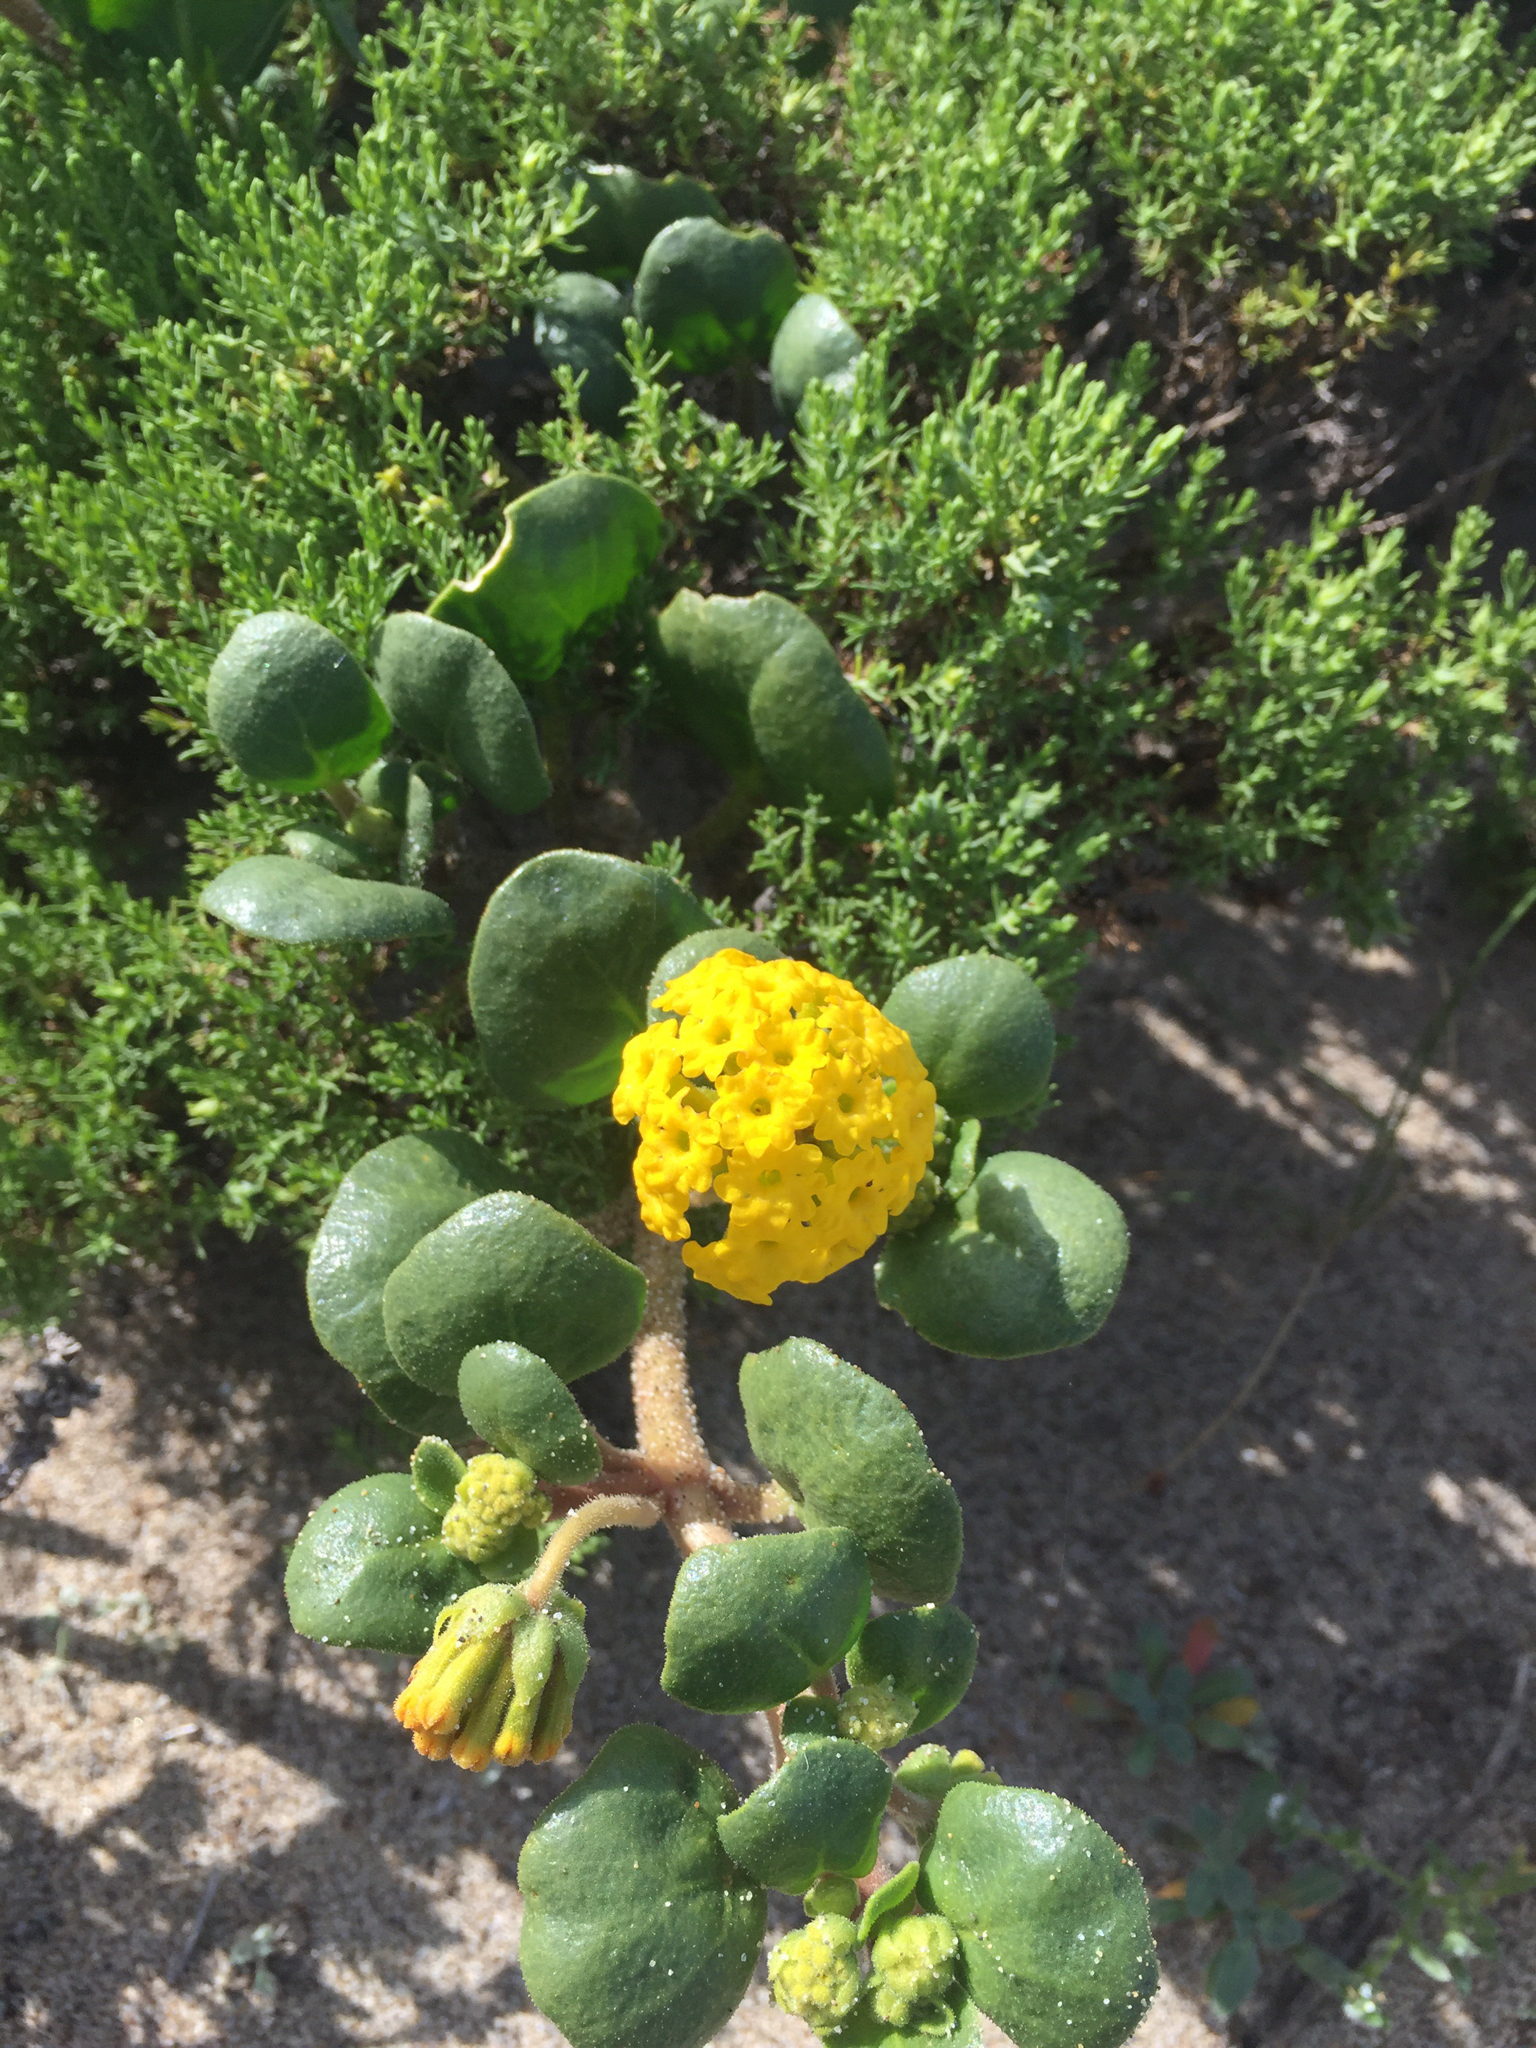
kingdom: Plantae
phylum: Tracheophyta
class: Magnoliopsida
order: Caryophyllales
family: Nyctaginaceae
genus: Abronia
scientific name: Abronia latifolia
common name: Yellow sand-verbena
